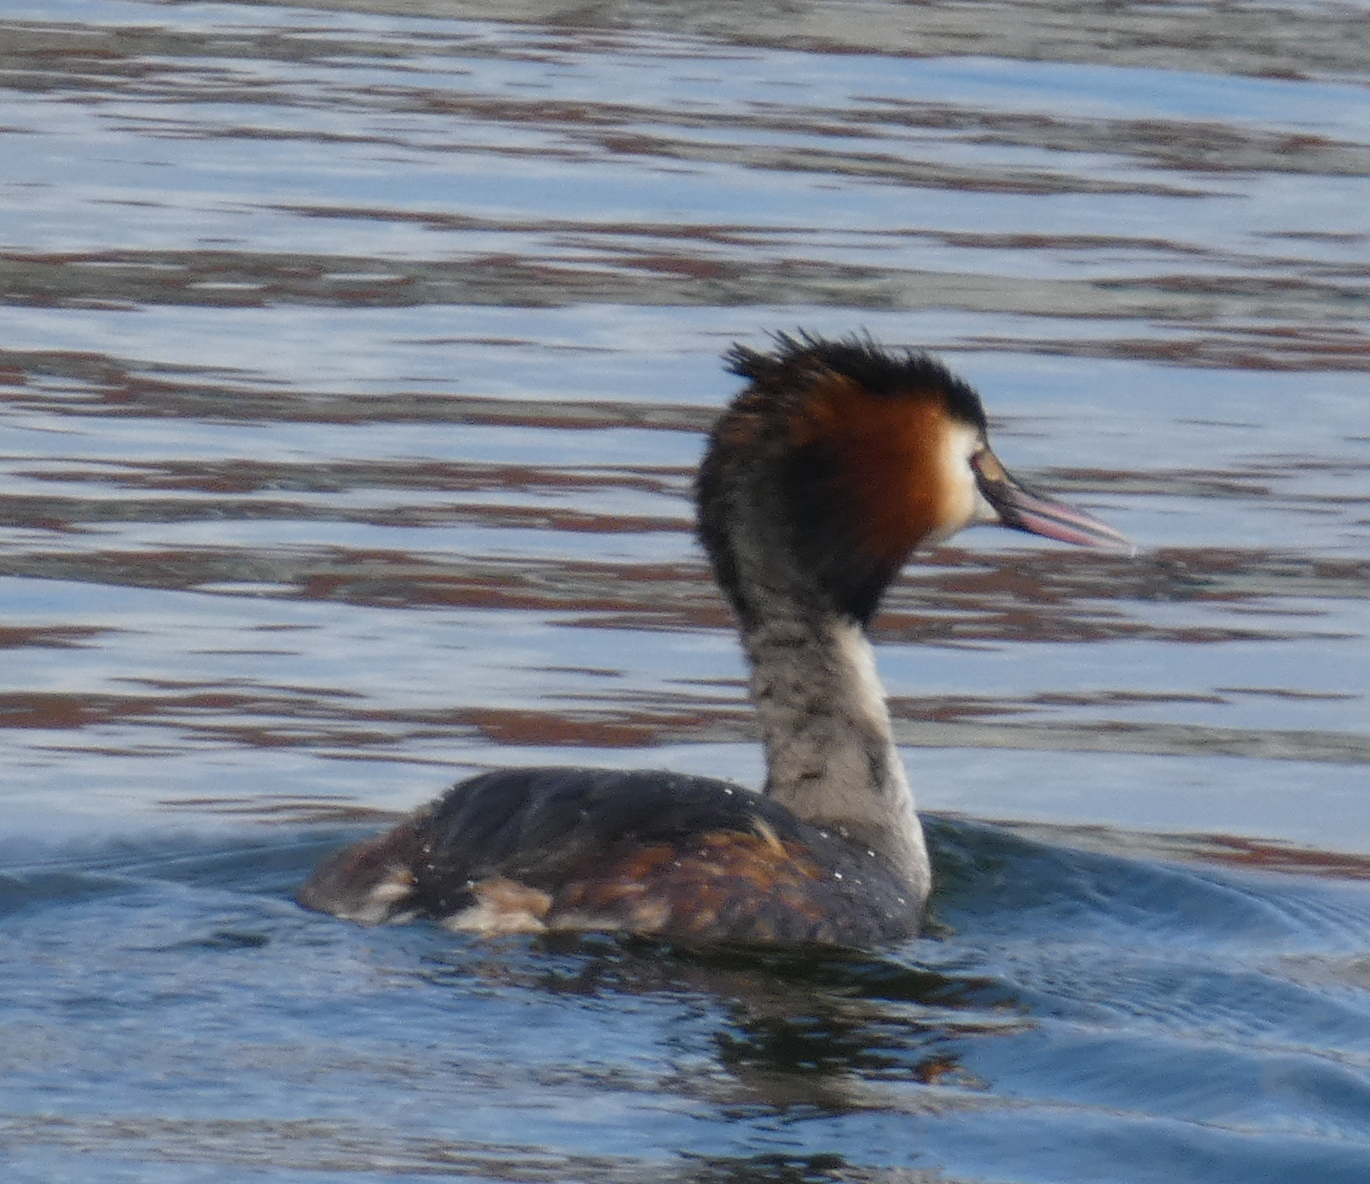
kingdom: Animalia
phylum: Chordata
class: Aves
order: Podicipediformes
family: Podicipedidae
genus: Podiceps
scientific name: Podiceps cristatus
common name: Great crested grebe
